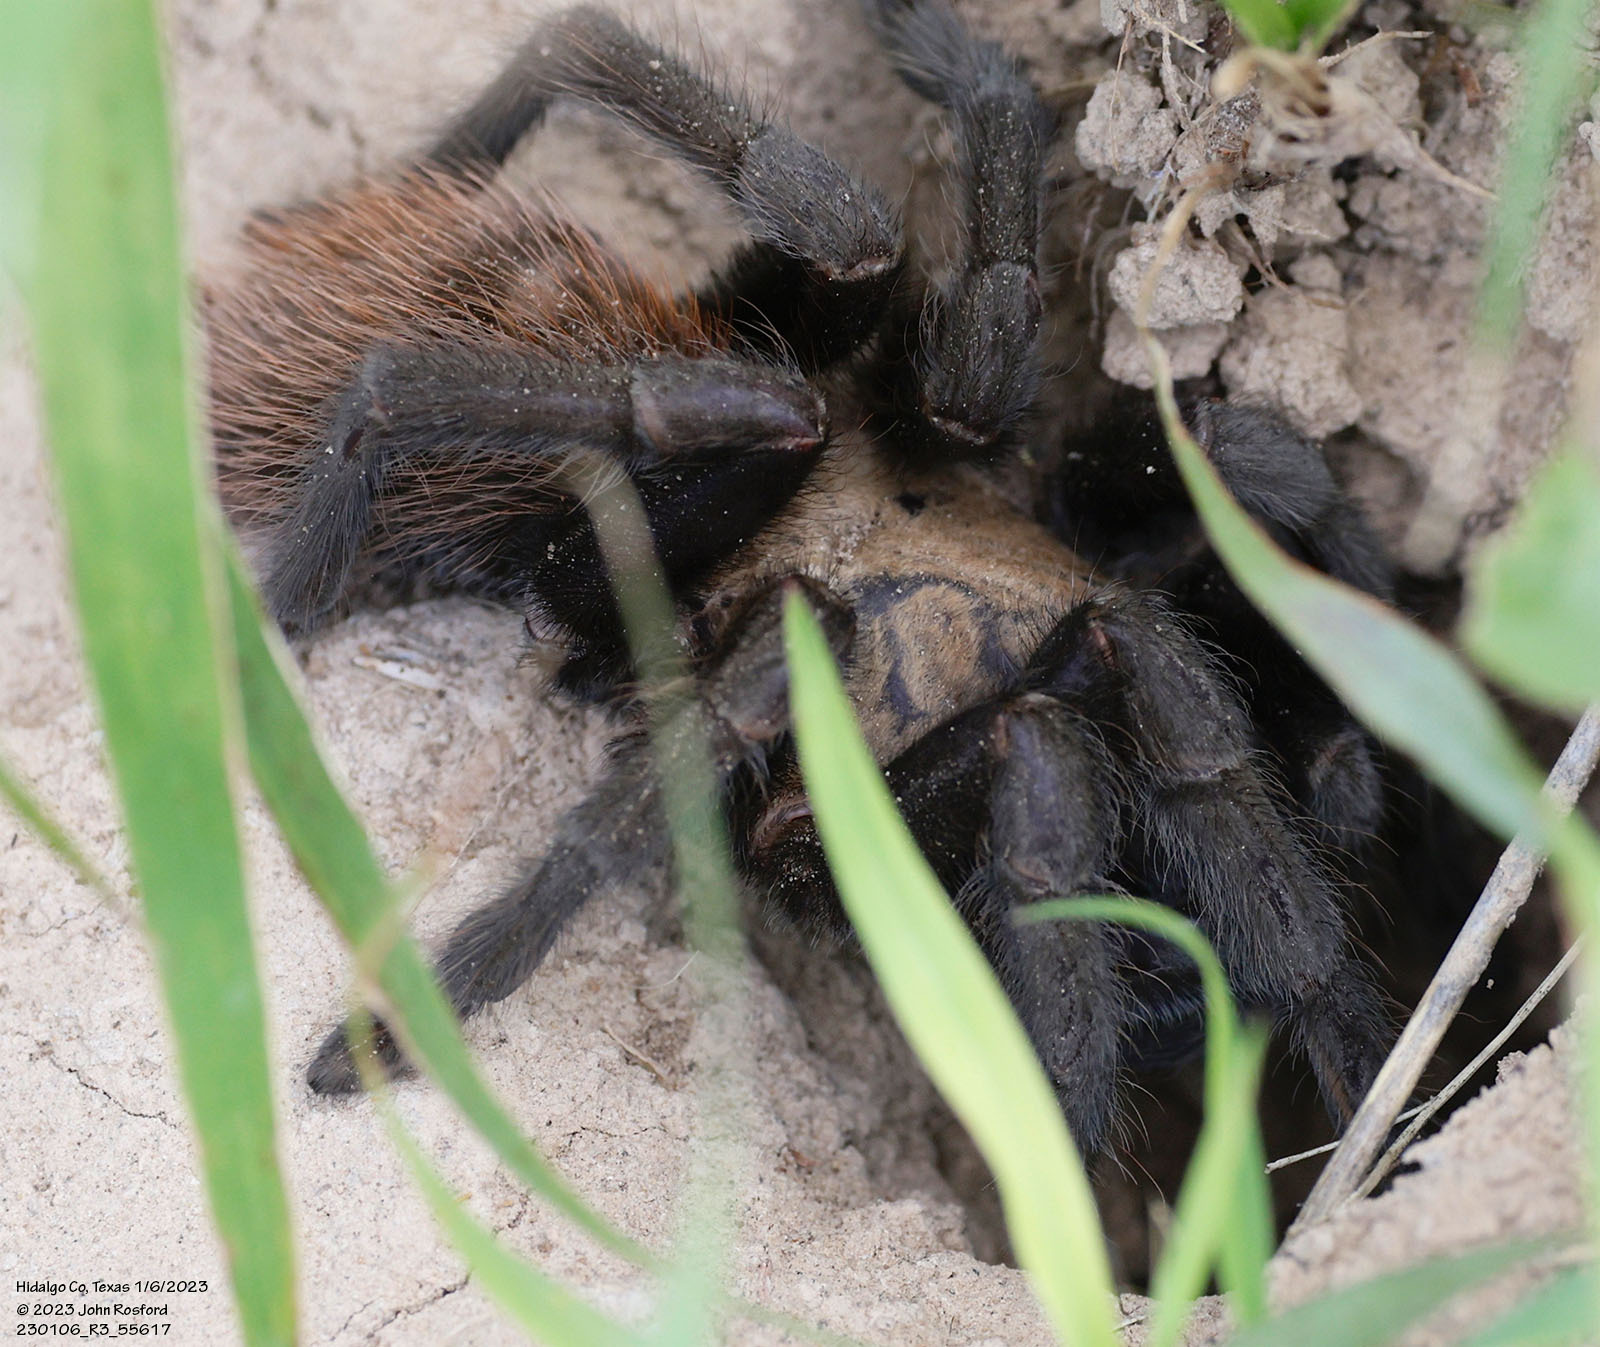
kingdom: Animalia
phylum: Arthropoda
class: Arachnida
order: Araneae
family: Theraphosidae
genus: Aphonopelma
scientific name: Aphonopelma anax
